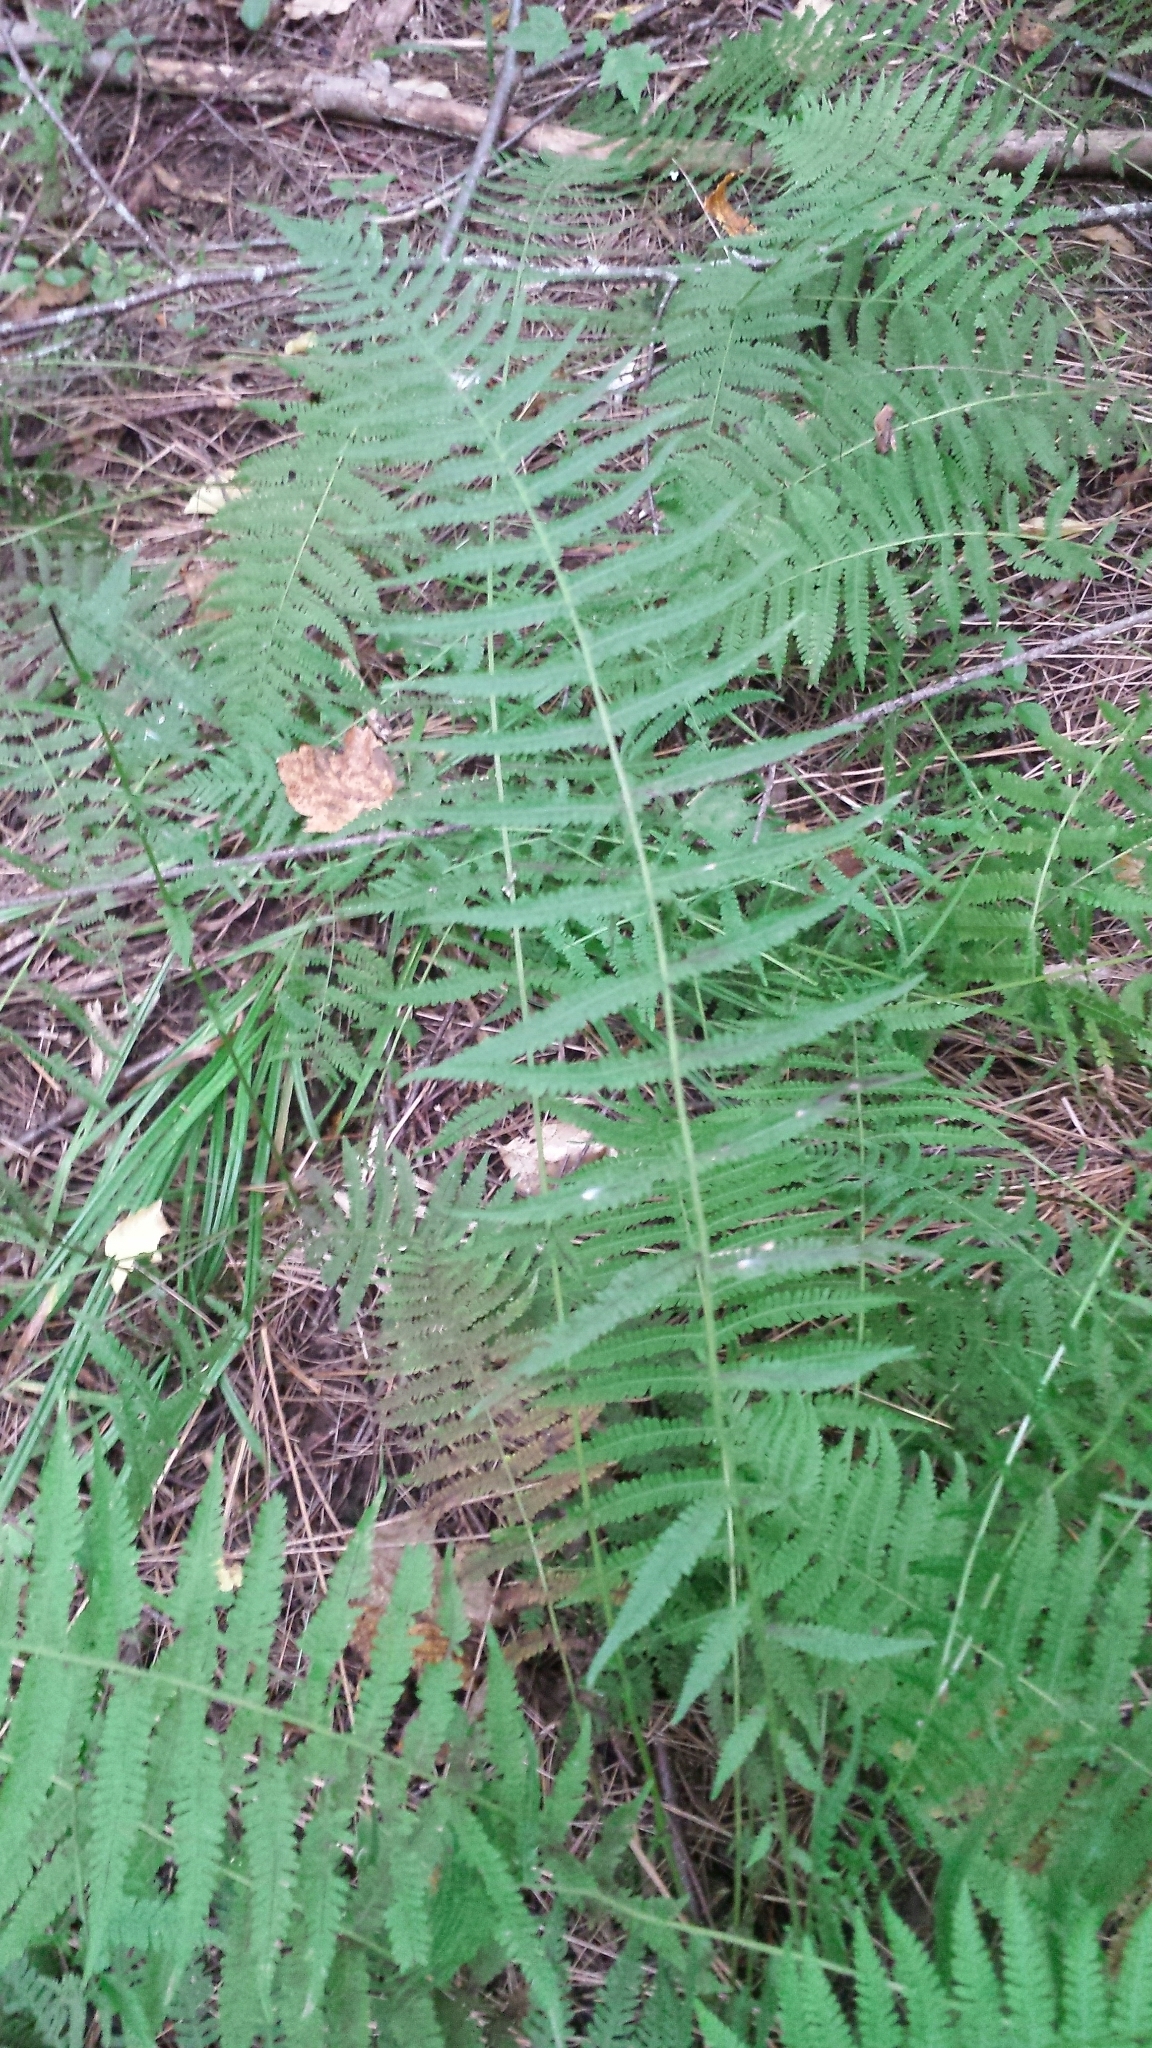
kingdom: Plantae
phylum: Tracheophyta
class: Polypodiopsida
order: Polypodiales
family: Thelypteridaceae
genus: Thelypteris
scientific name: Thelypteris palustris
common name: Marsh fern
